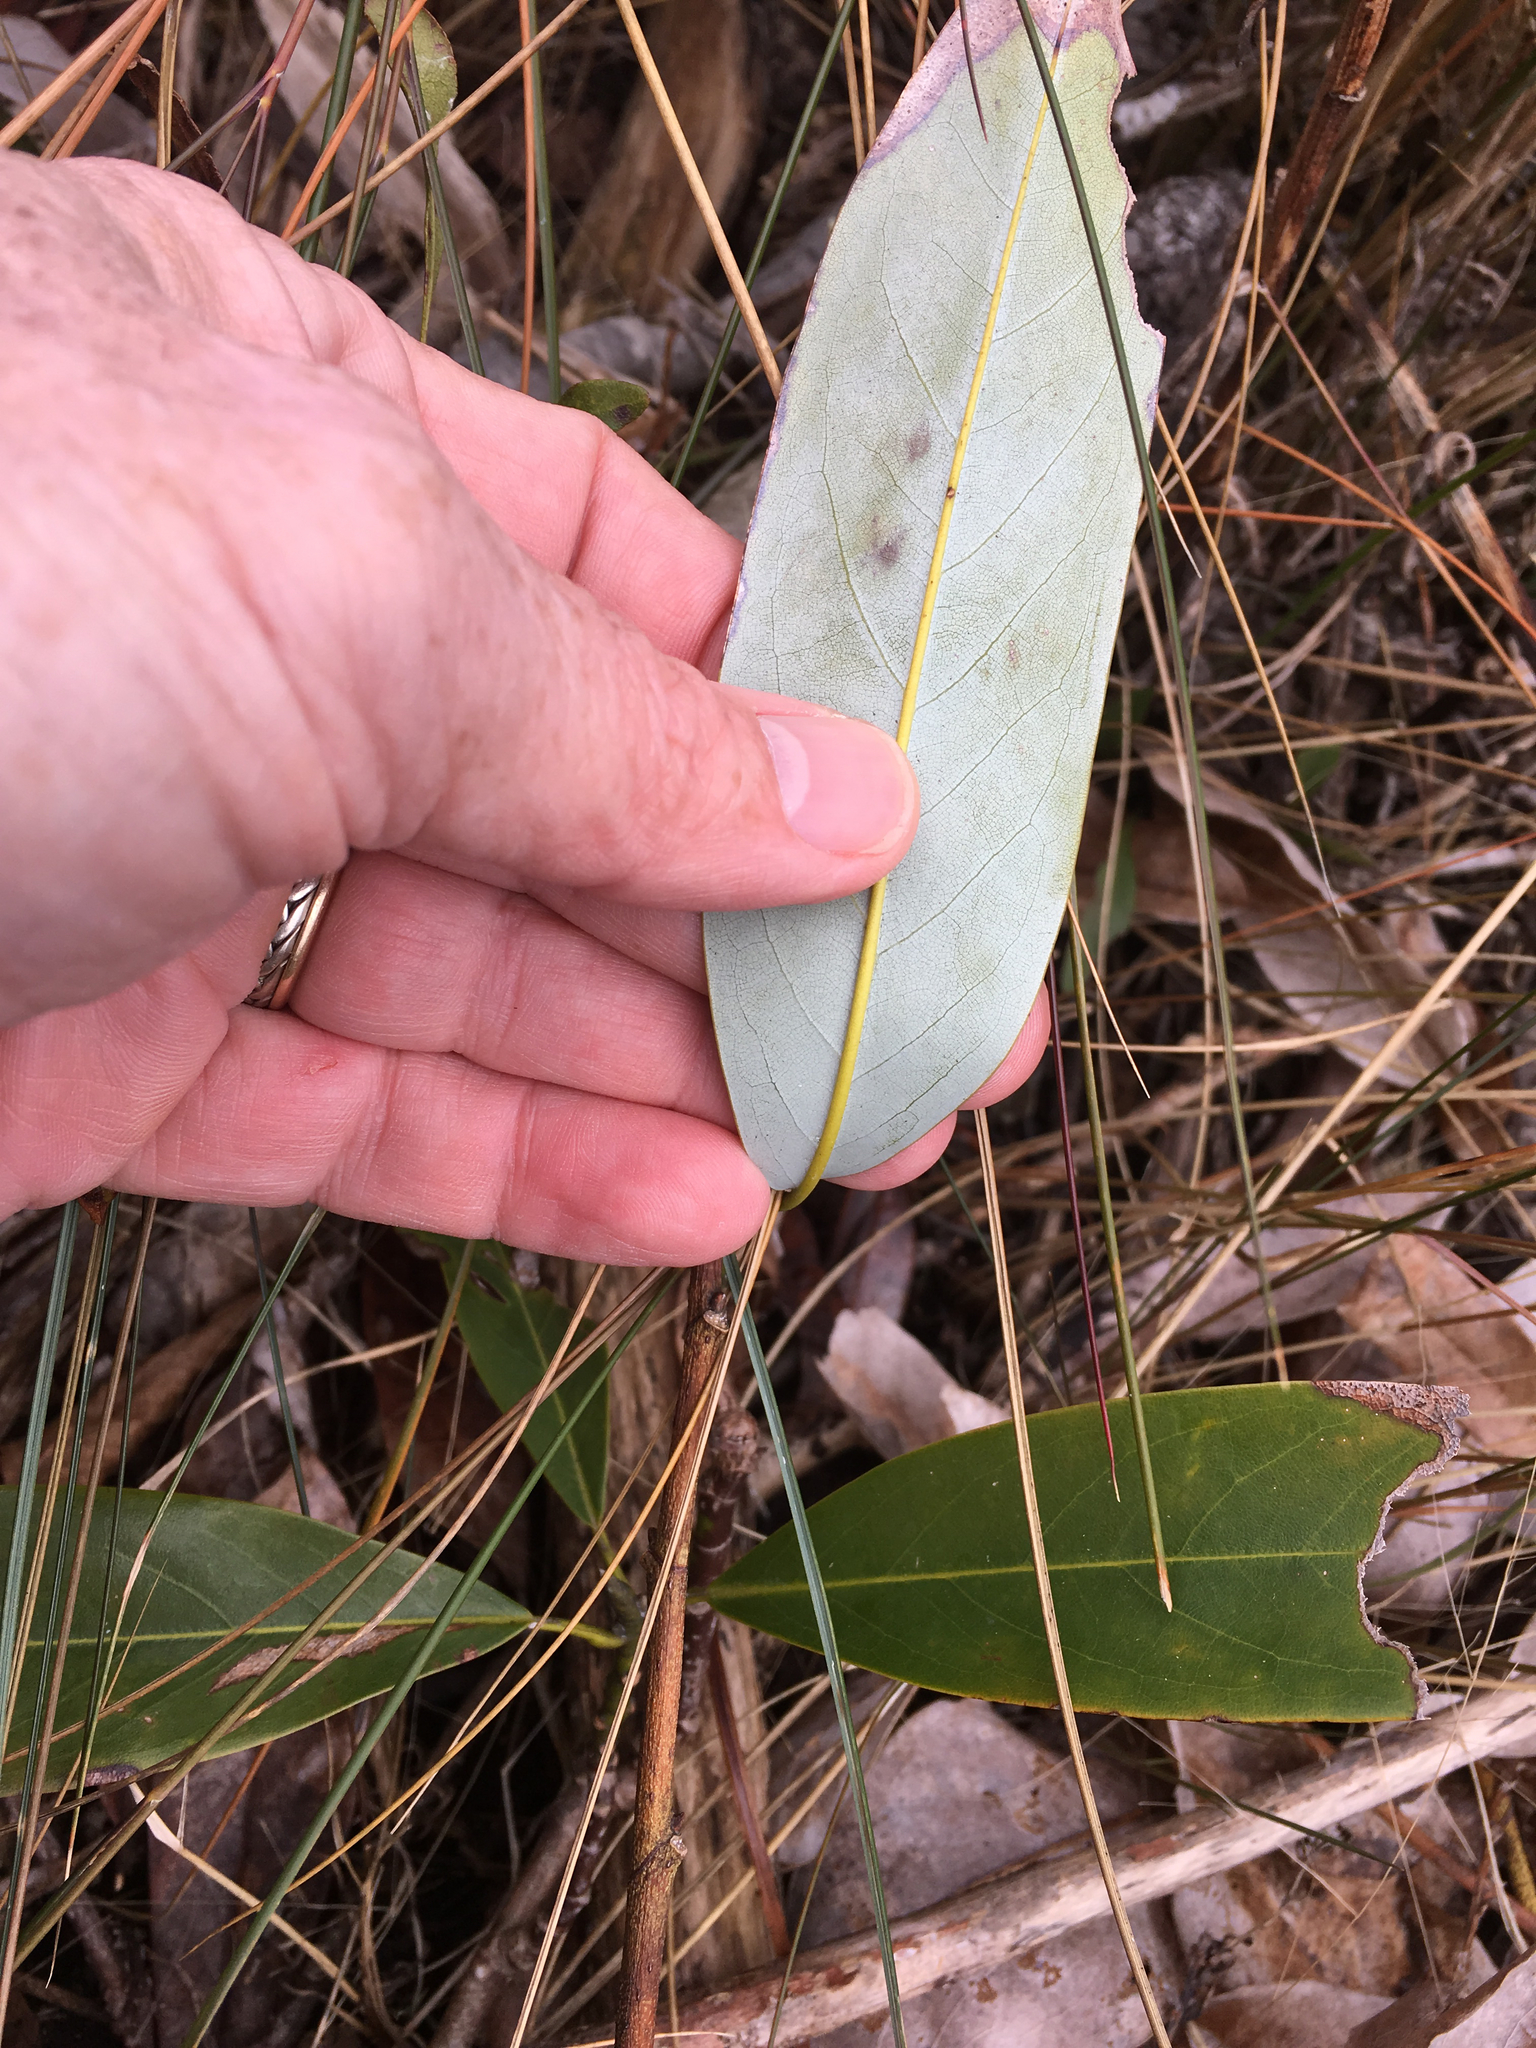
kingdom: Plantae
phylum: Tracheophyta
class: Magnoliopsida
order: Magnoliales
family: Magnoliaceae
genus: Magnolia
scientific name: Magnolia virginiana
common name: Swamp bay
